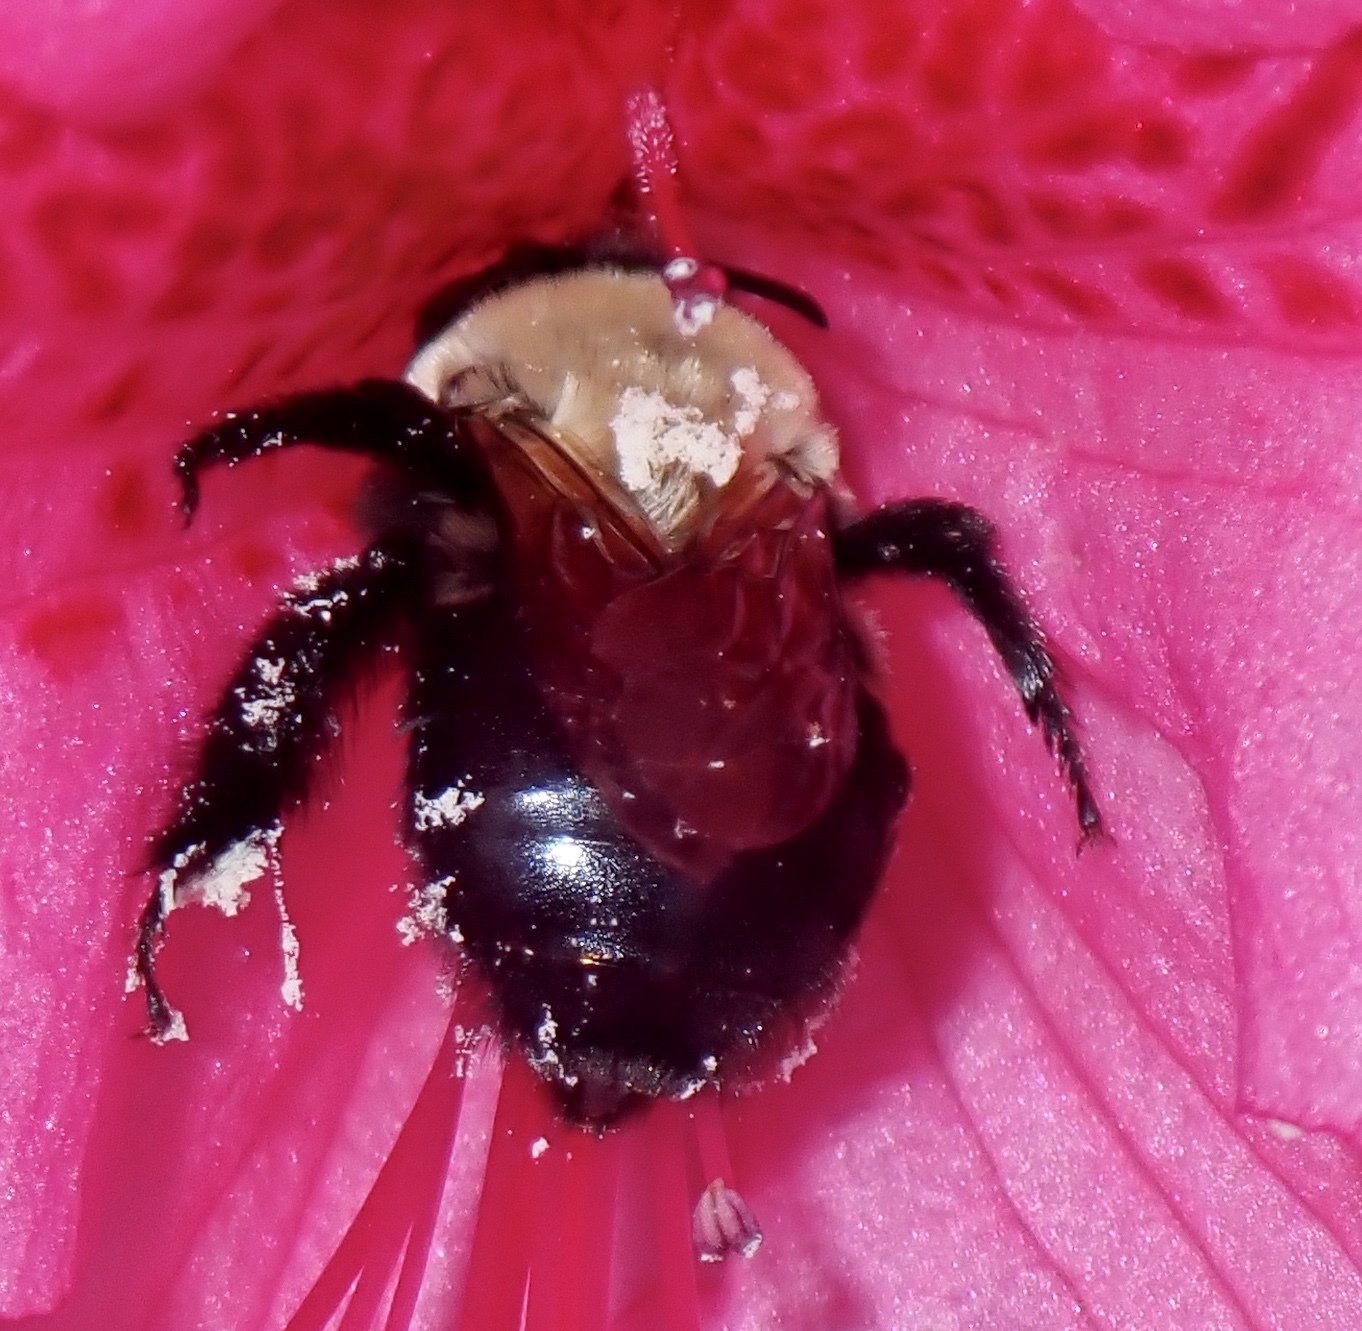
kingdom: Animalia
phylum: Arthropoda
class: Insecta
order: Hymenoptera
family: Apidae
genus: Habropoda
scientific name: Habropoda laboriosa
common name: Southeastern blueberry bee
